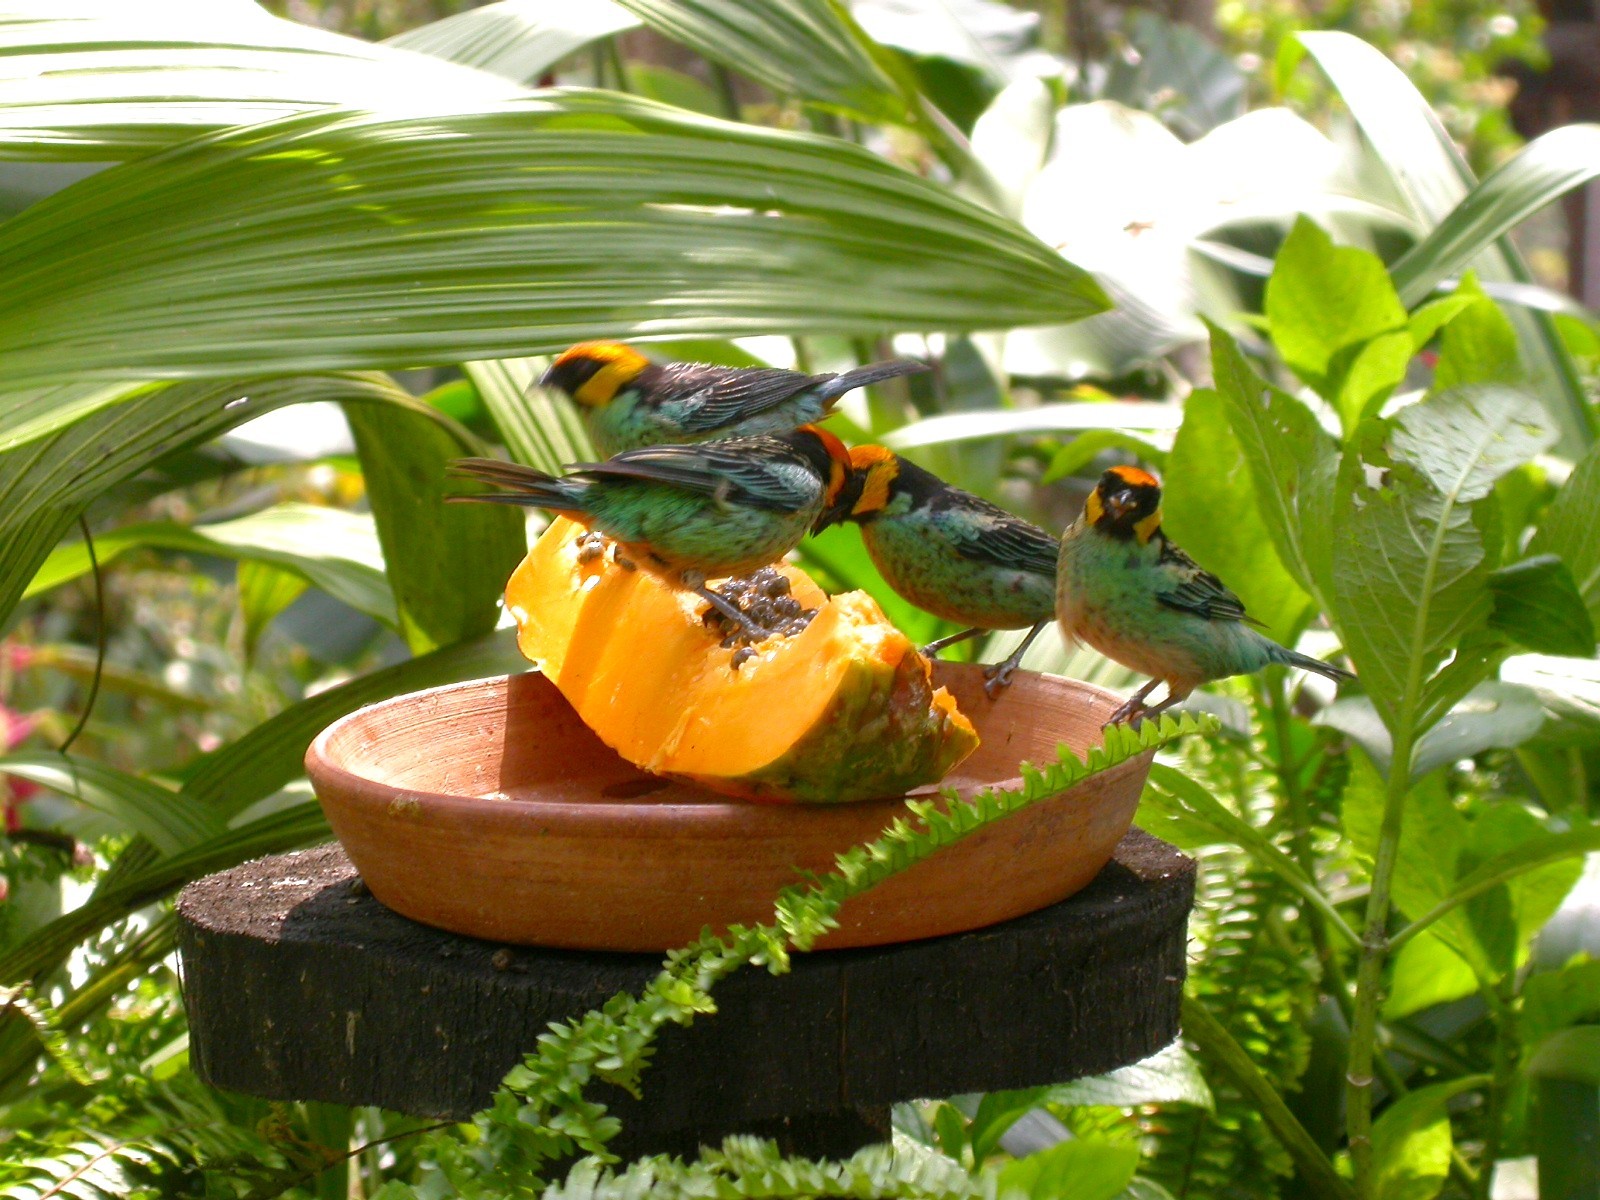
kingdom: Animalia
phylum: Chordata
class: Aves
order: Passeriformes
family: Thraupidae
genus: Tangara
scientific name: Tangara xanthocephala
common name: Saffron-crowned tanager
